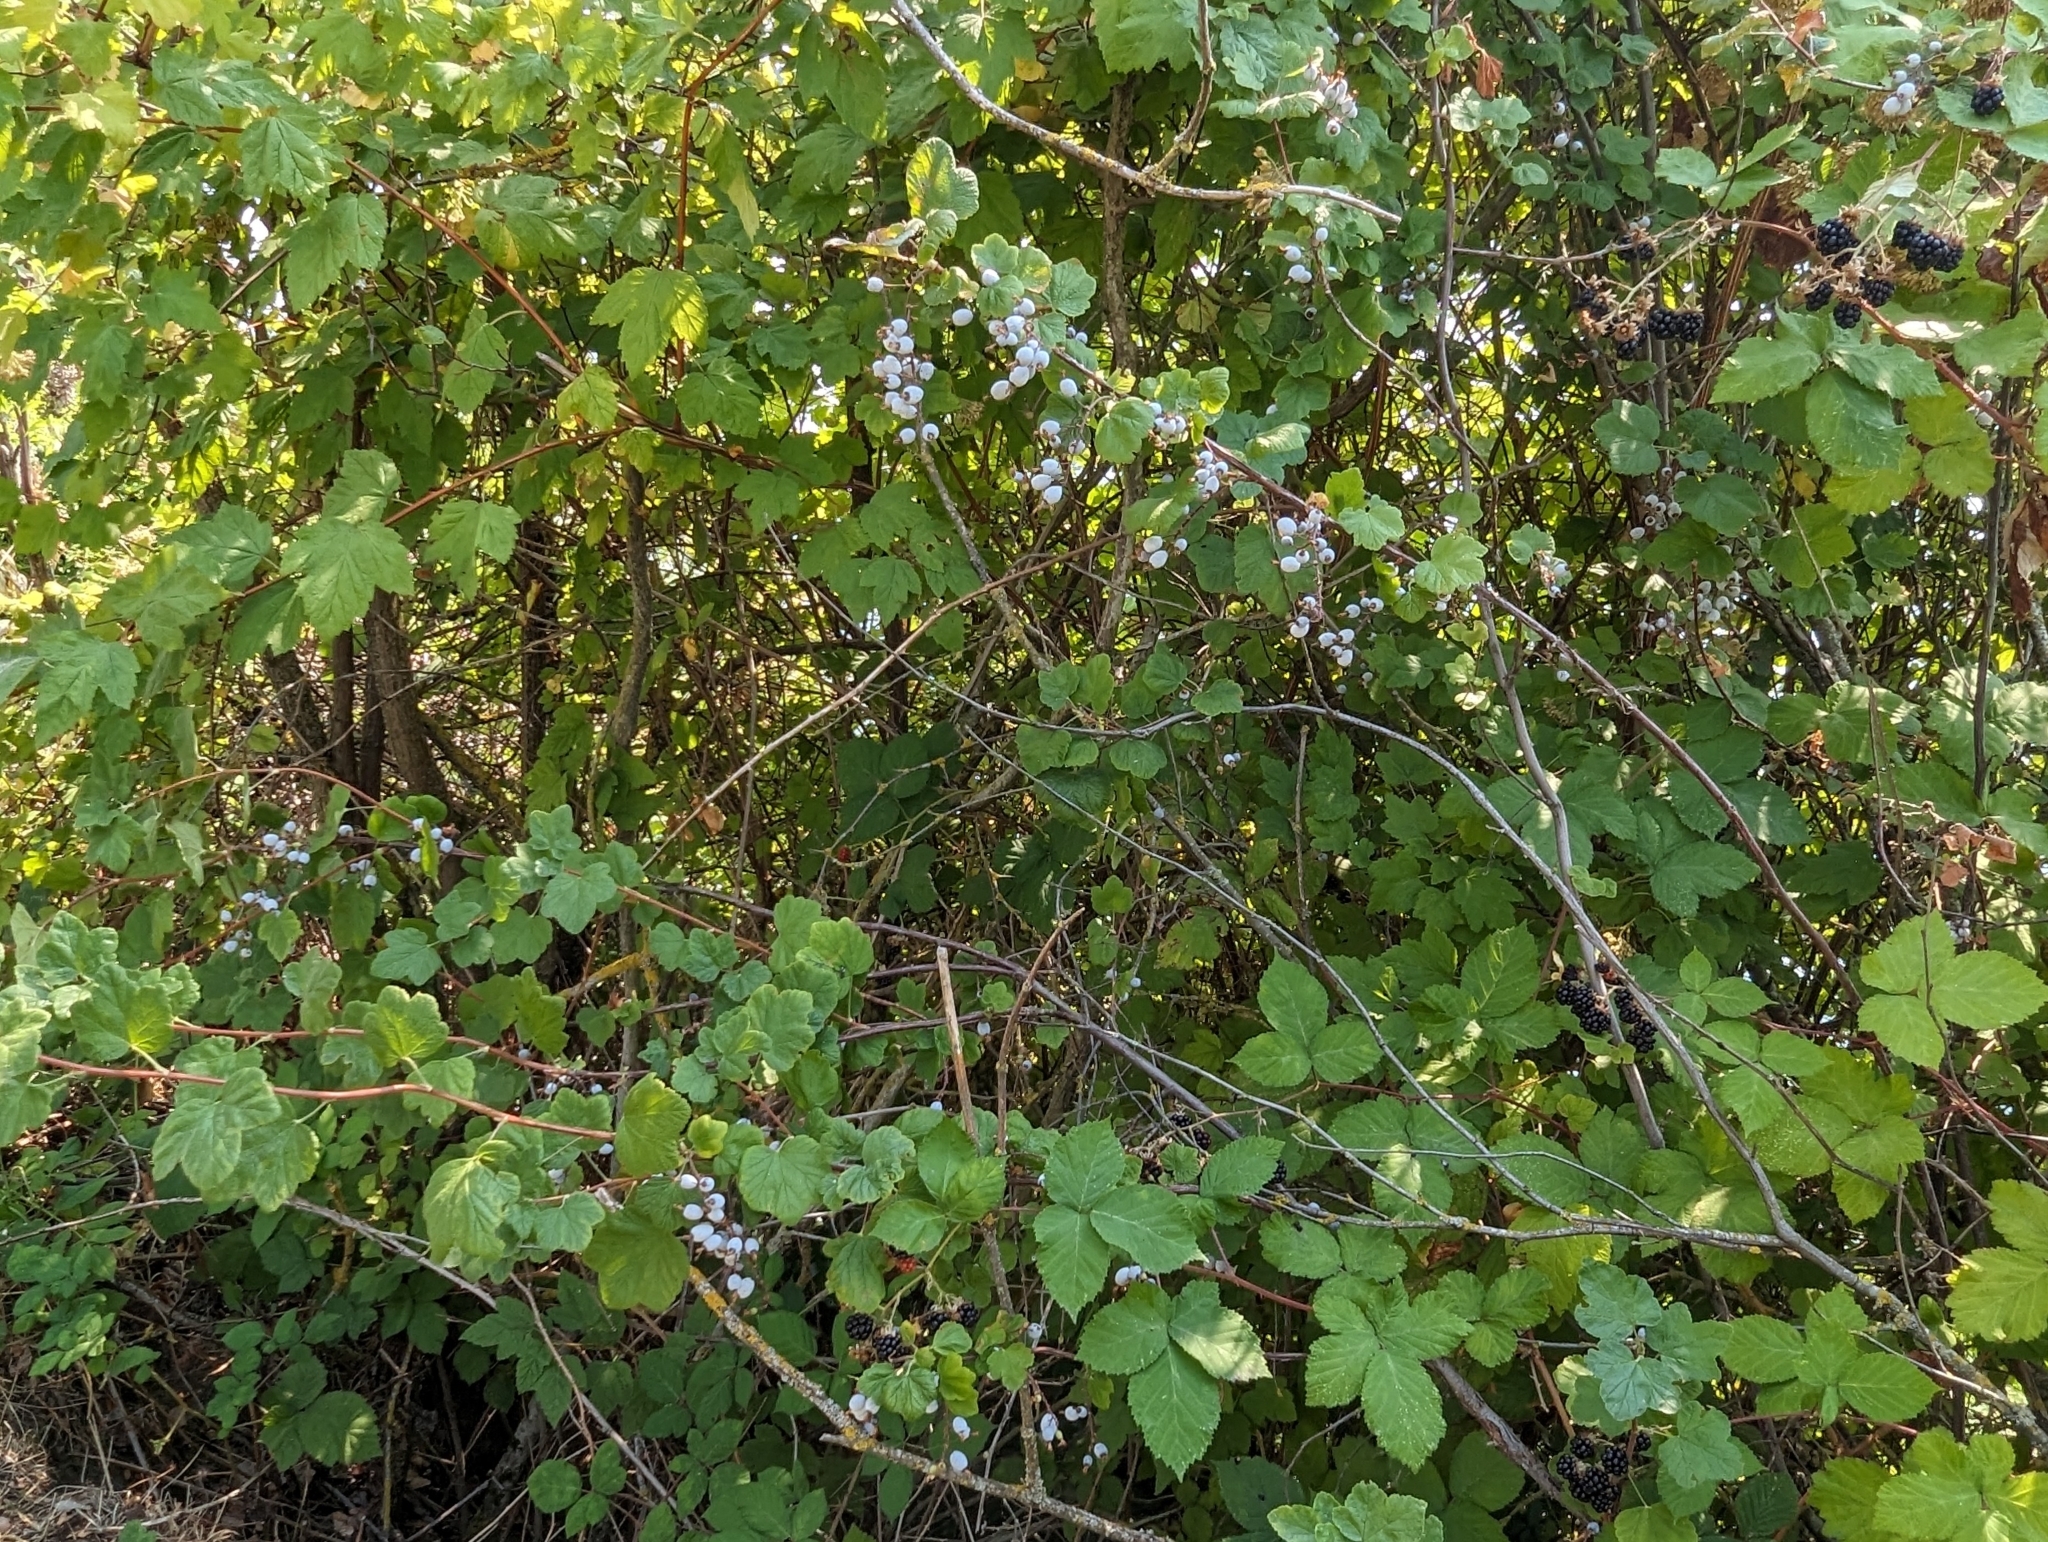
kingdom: Plantae
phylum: Tracheophyta
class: Magnoliopsida
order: Saxifragales
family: Grossulariaceae
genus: Ribes
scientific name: Ribes sanguineum
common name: Flowering currant
